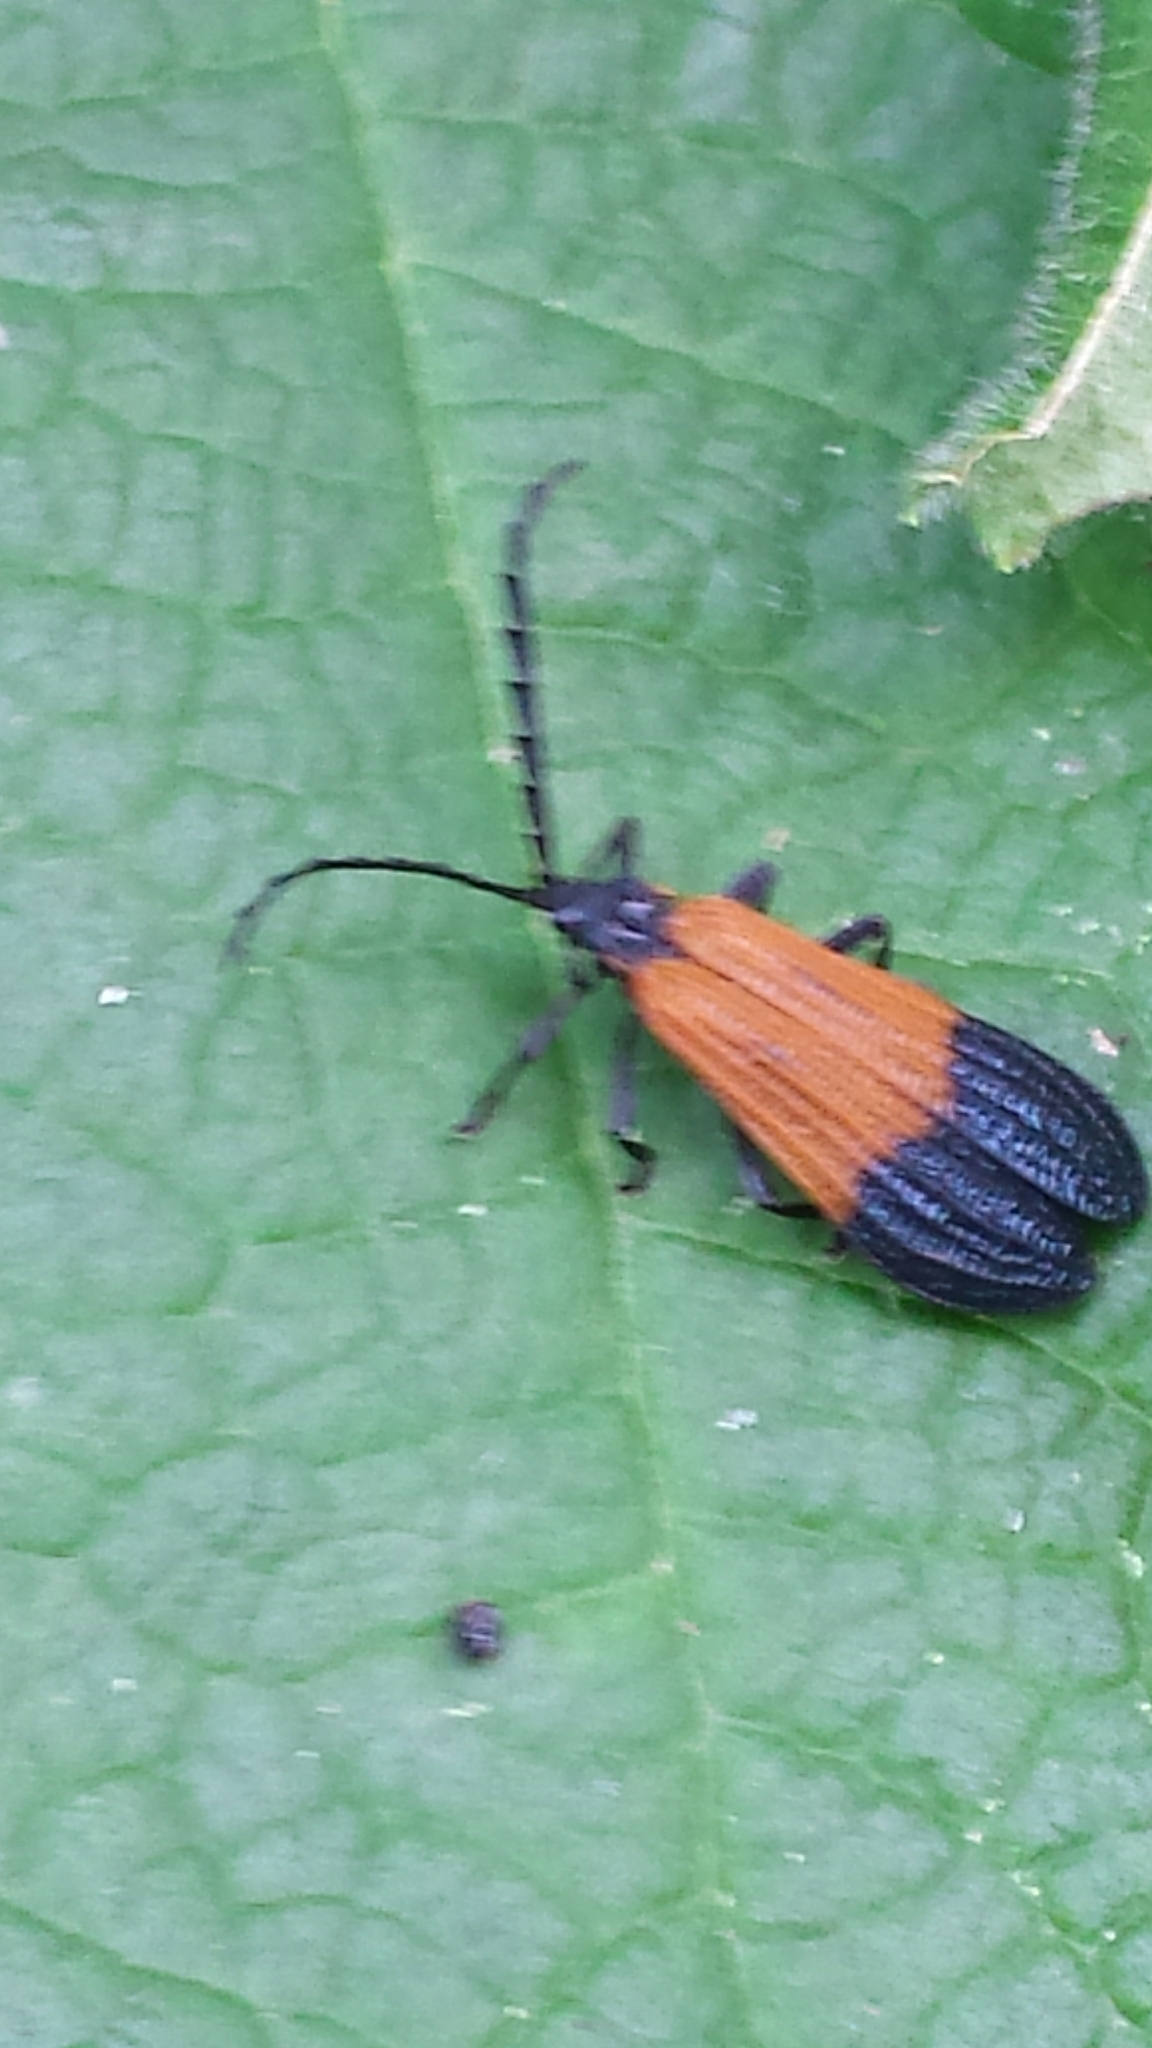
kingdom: Animalia
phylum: Arthropoda
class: Insecta
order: Coleoptera
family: Lycidae
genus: Calopteron
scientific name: Calopteron terminale
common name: End band net-winged beetle
